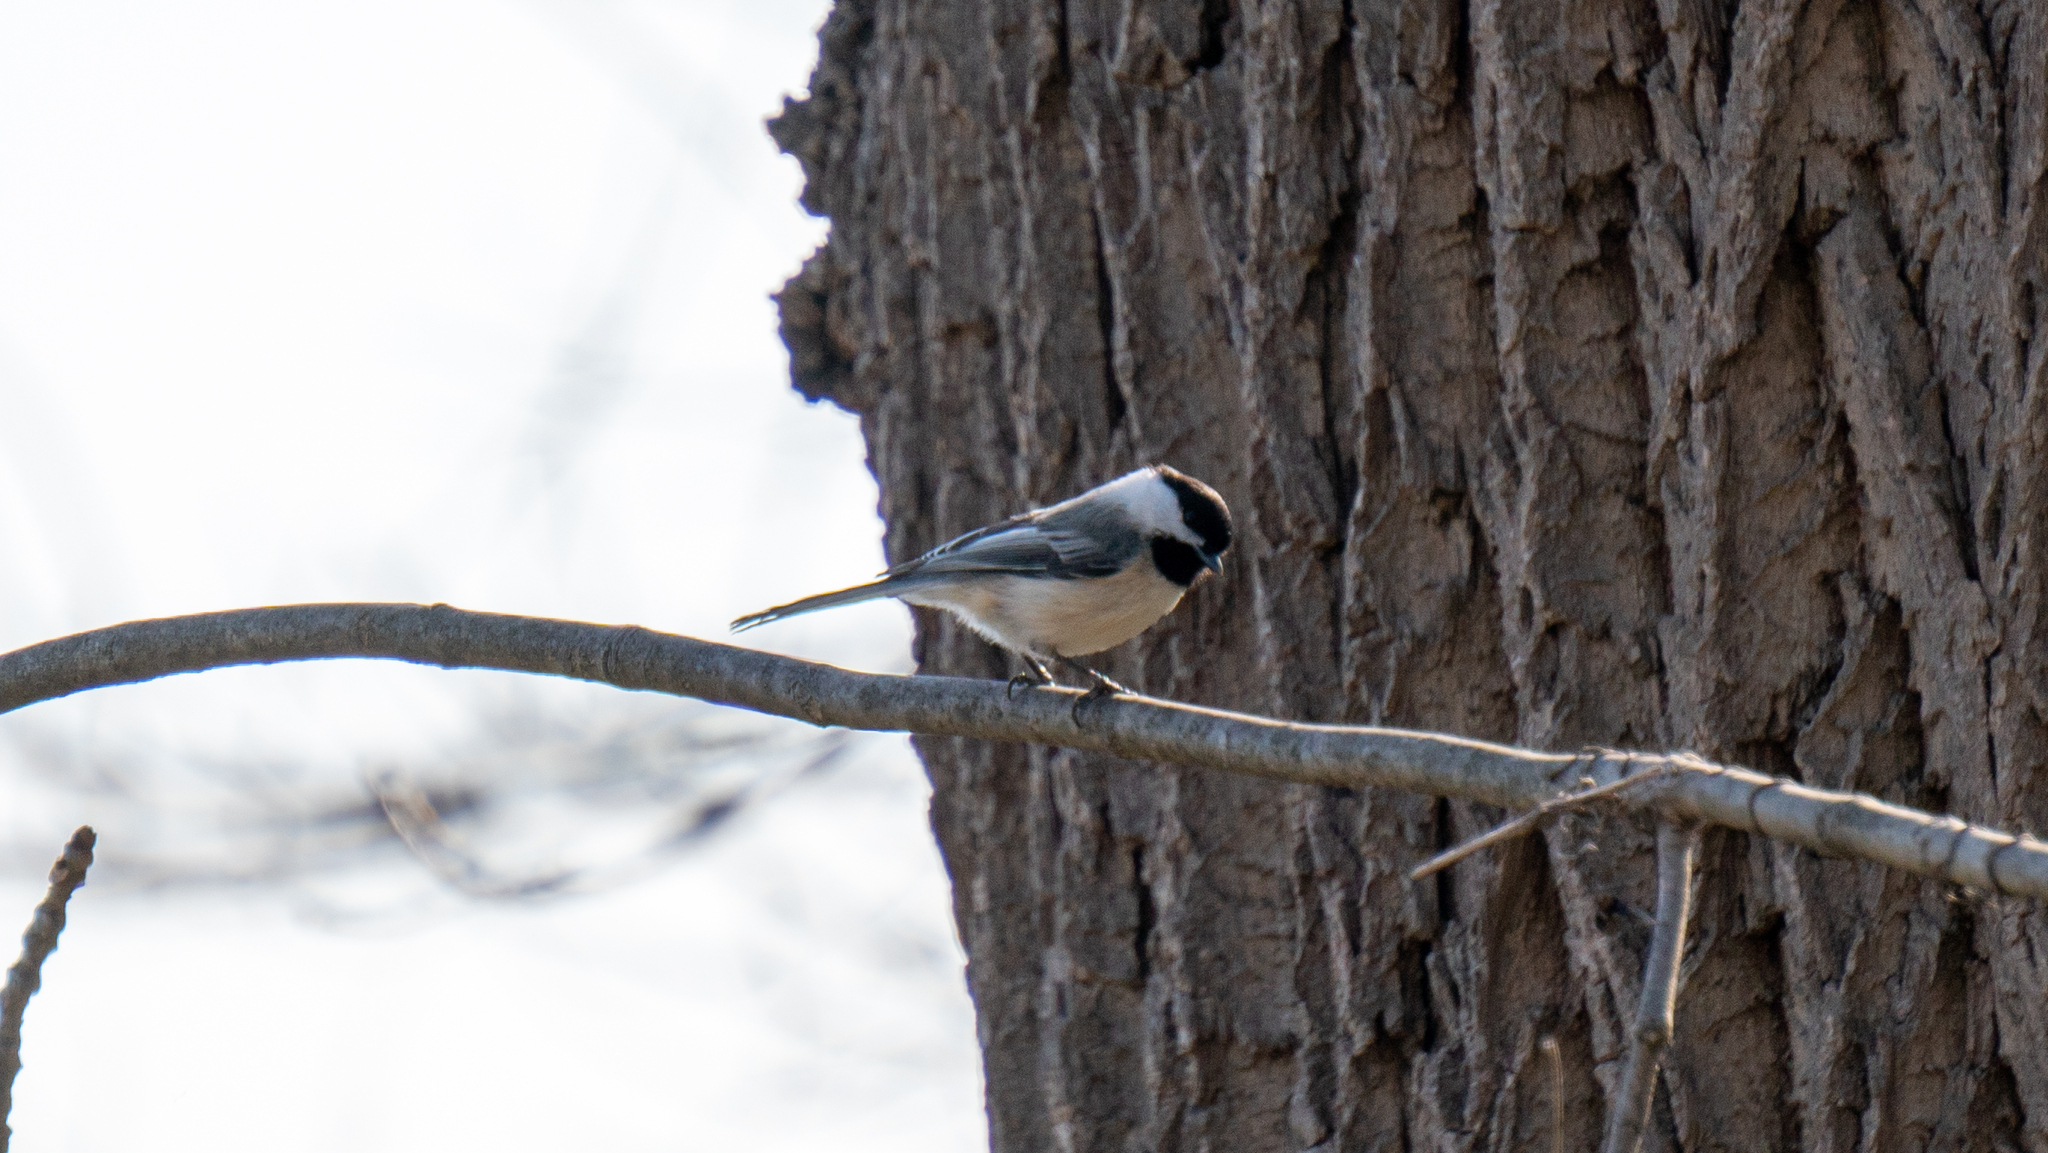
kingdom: Animalia
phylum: Chordata
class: Aves
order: Passeriformes
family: Paridae
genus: Poecile
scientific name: Poecile atricapillus
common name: Black-capped chickadee
